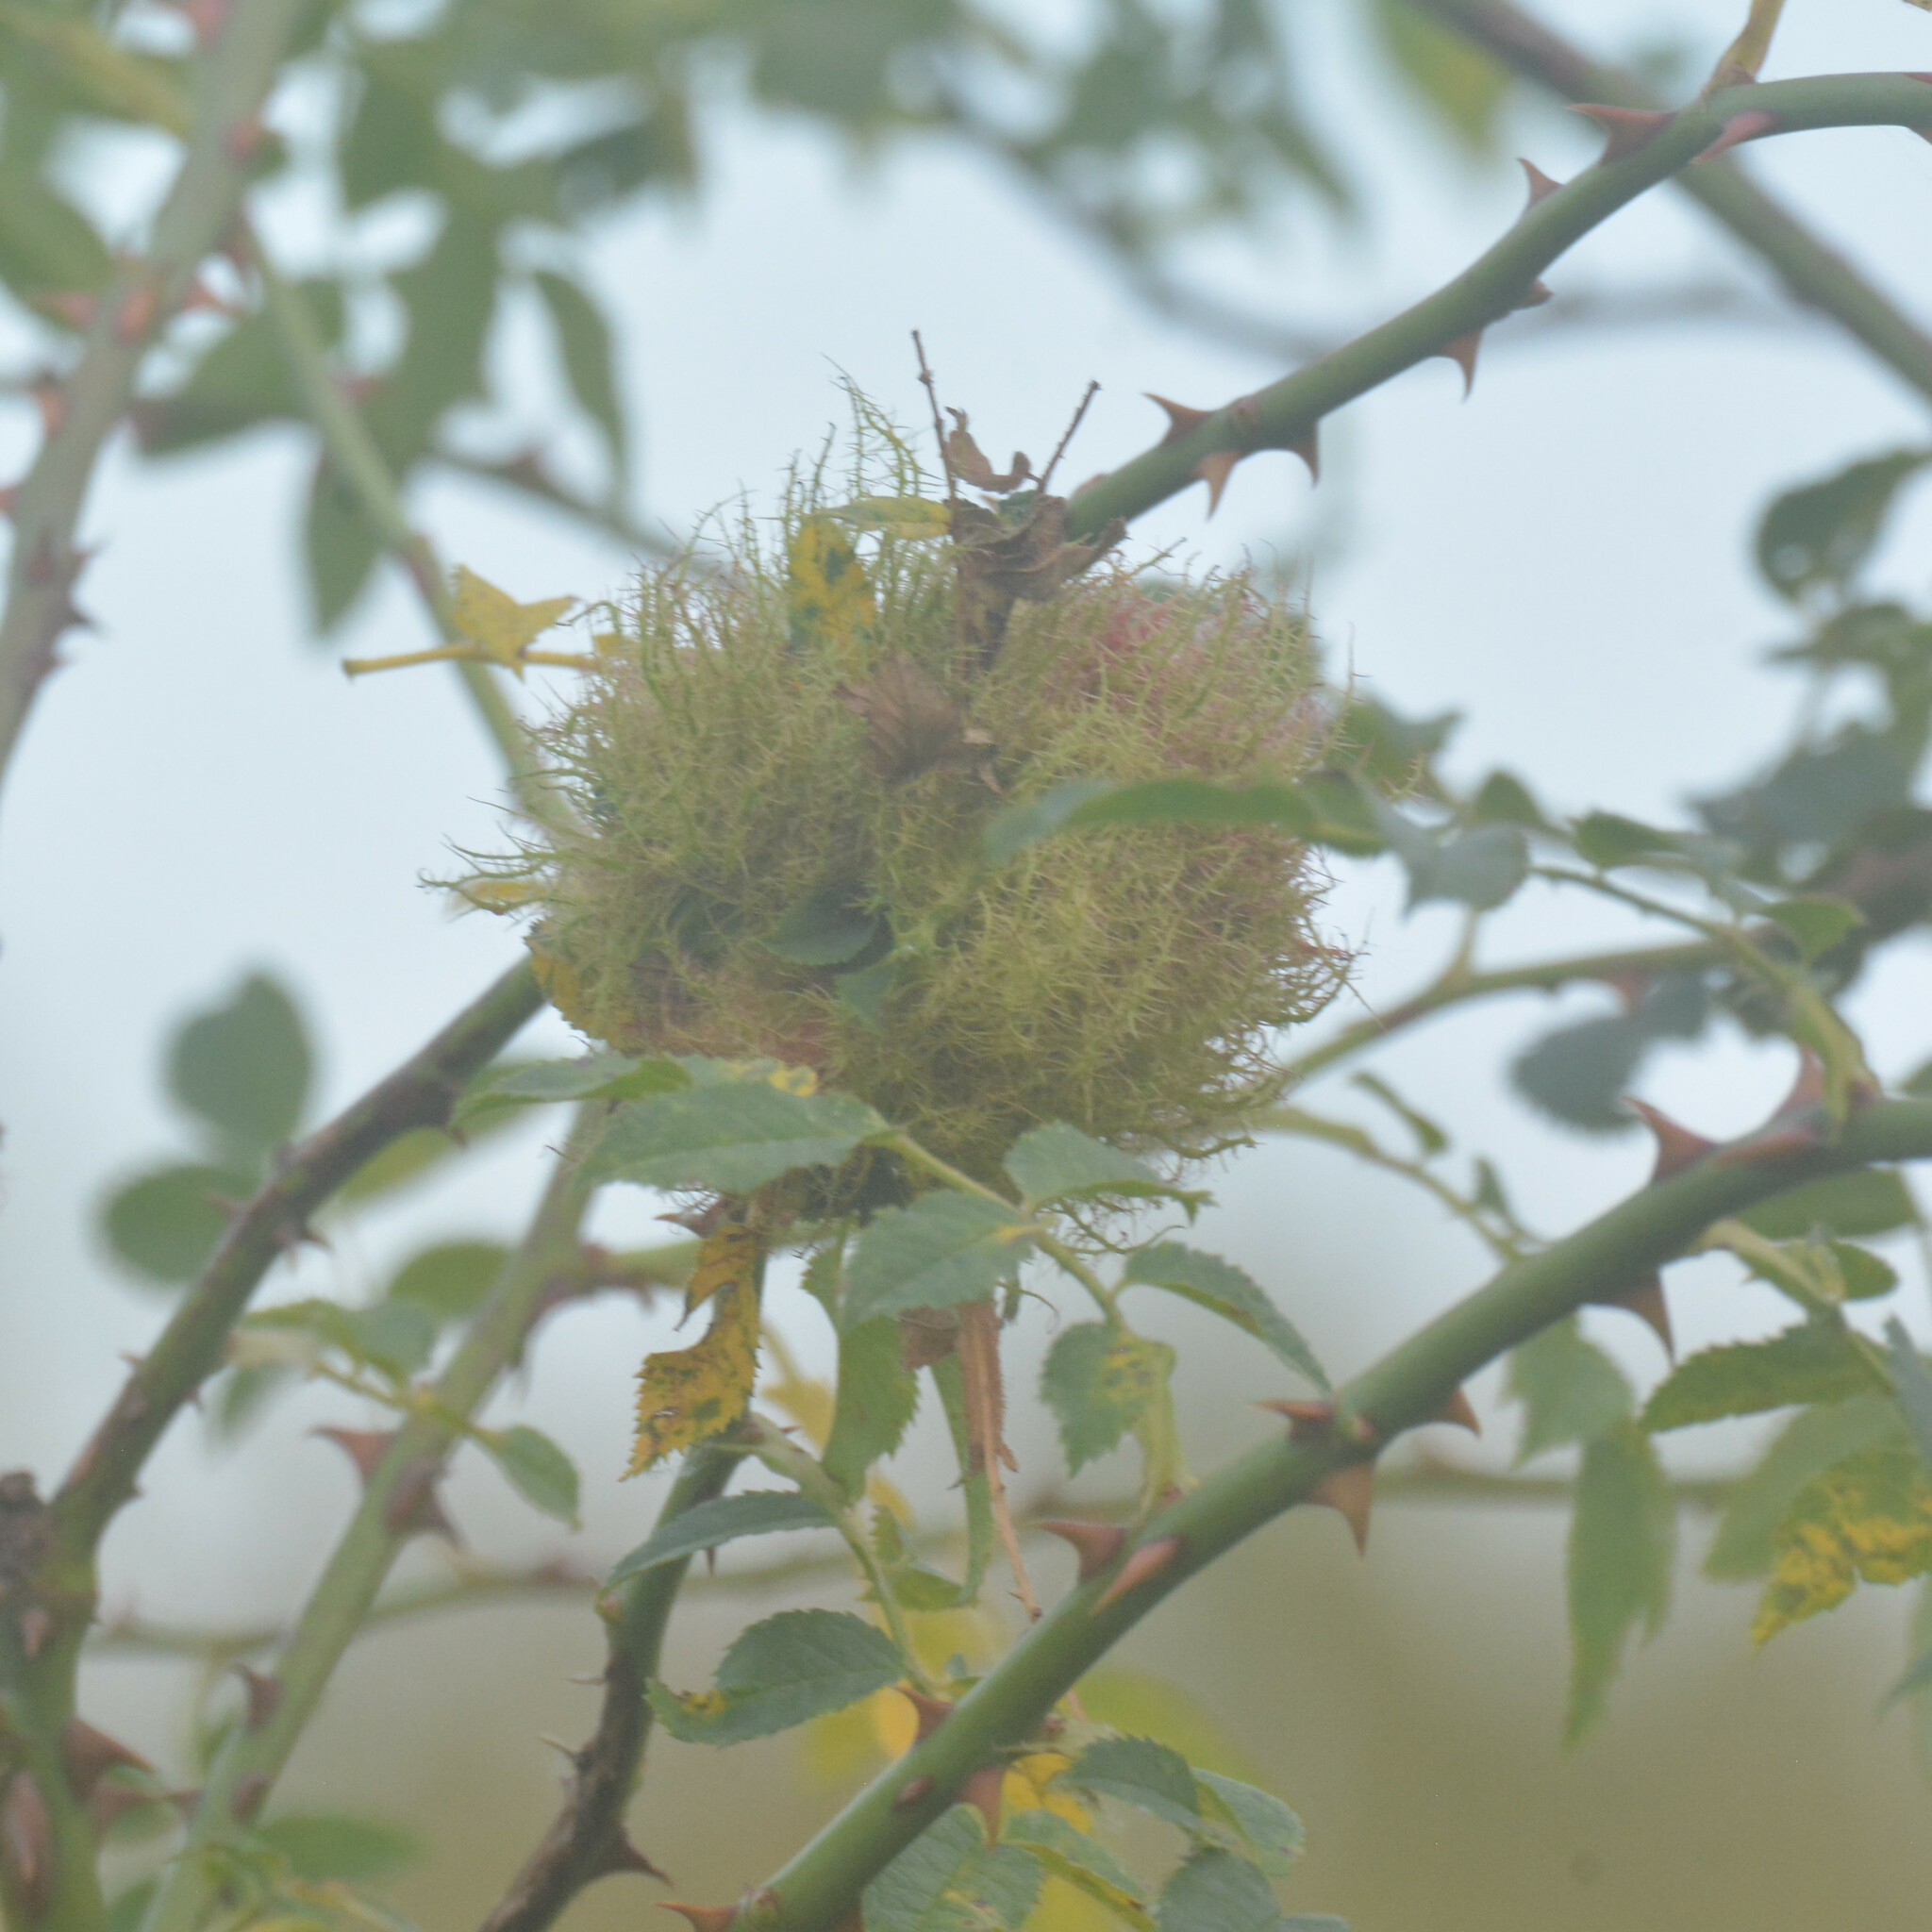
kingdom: Animalia
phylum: Arthropoda
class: Insecta
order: Hymenoptera
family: Cynipidae
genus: Diplolepis
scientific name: Diplolepis rosae
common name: Bedeguar gall
